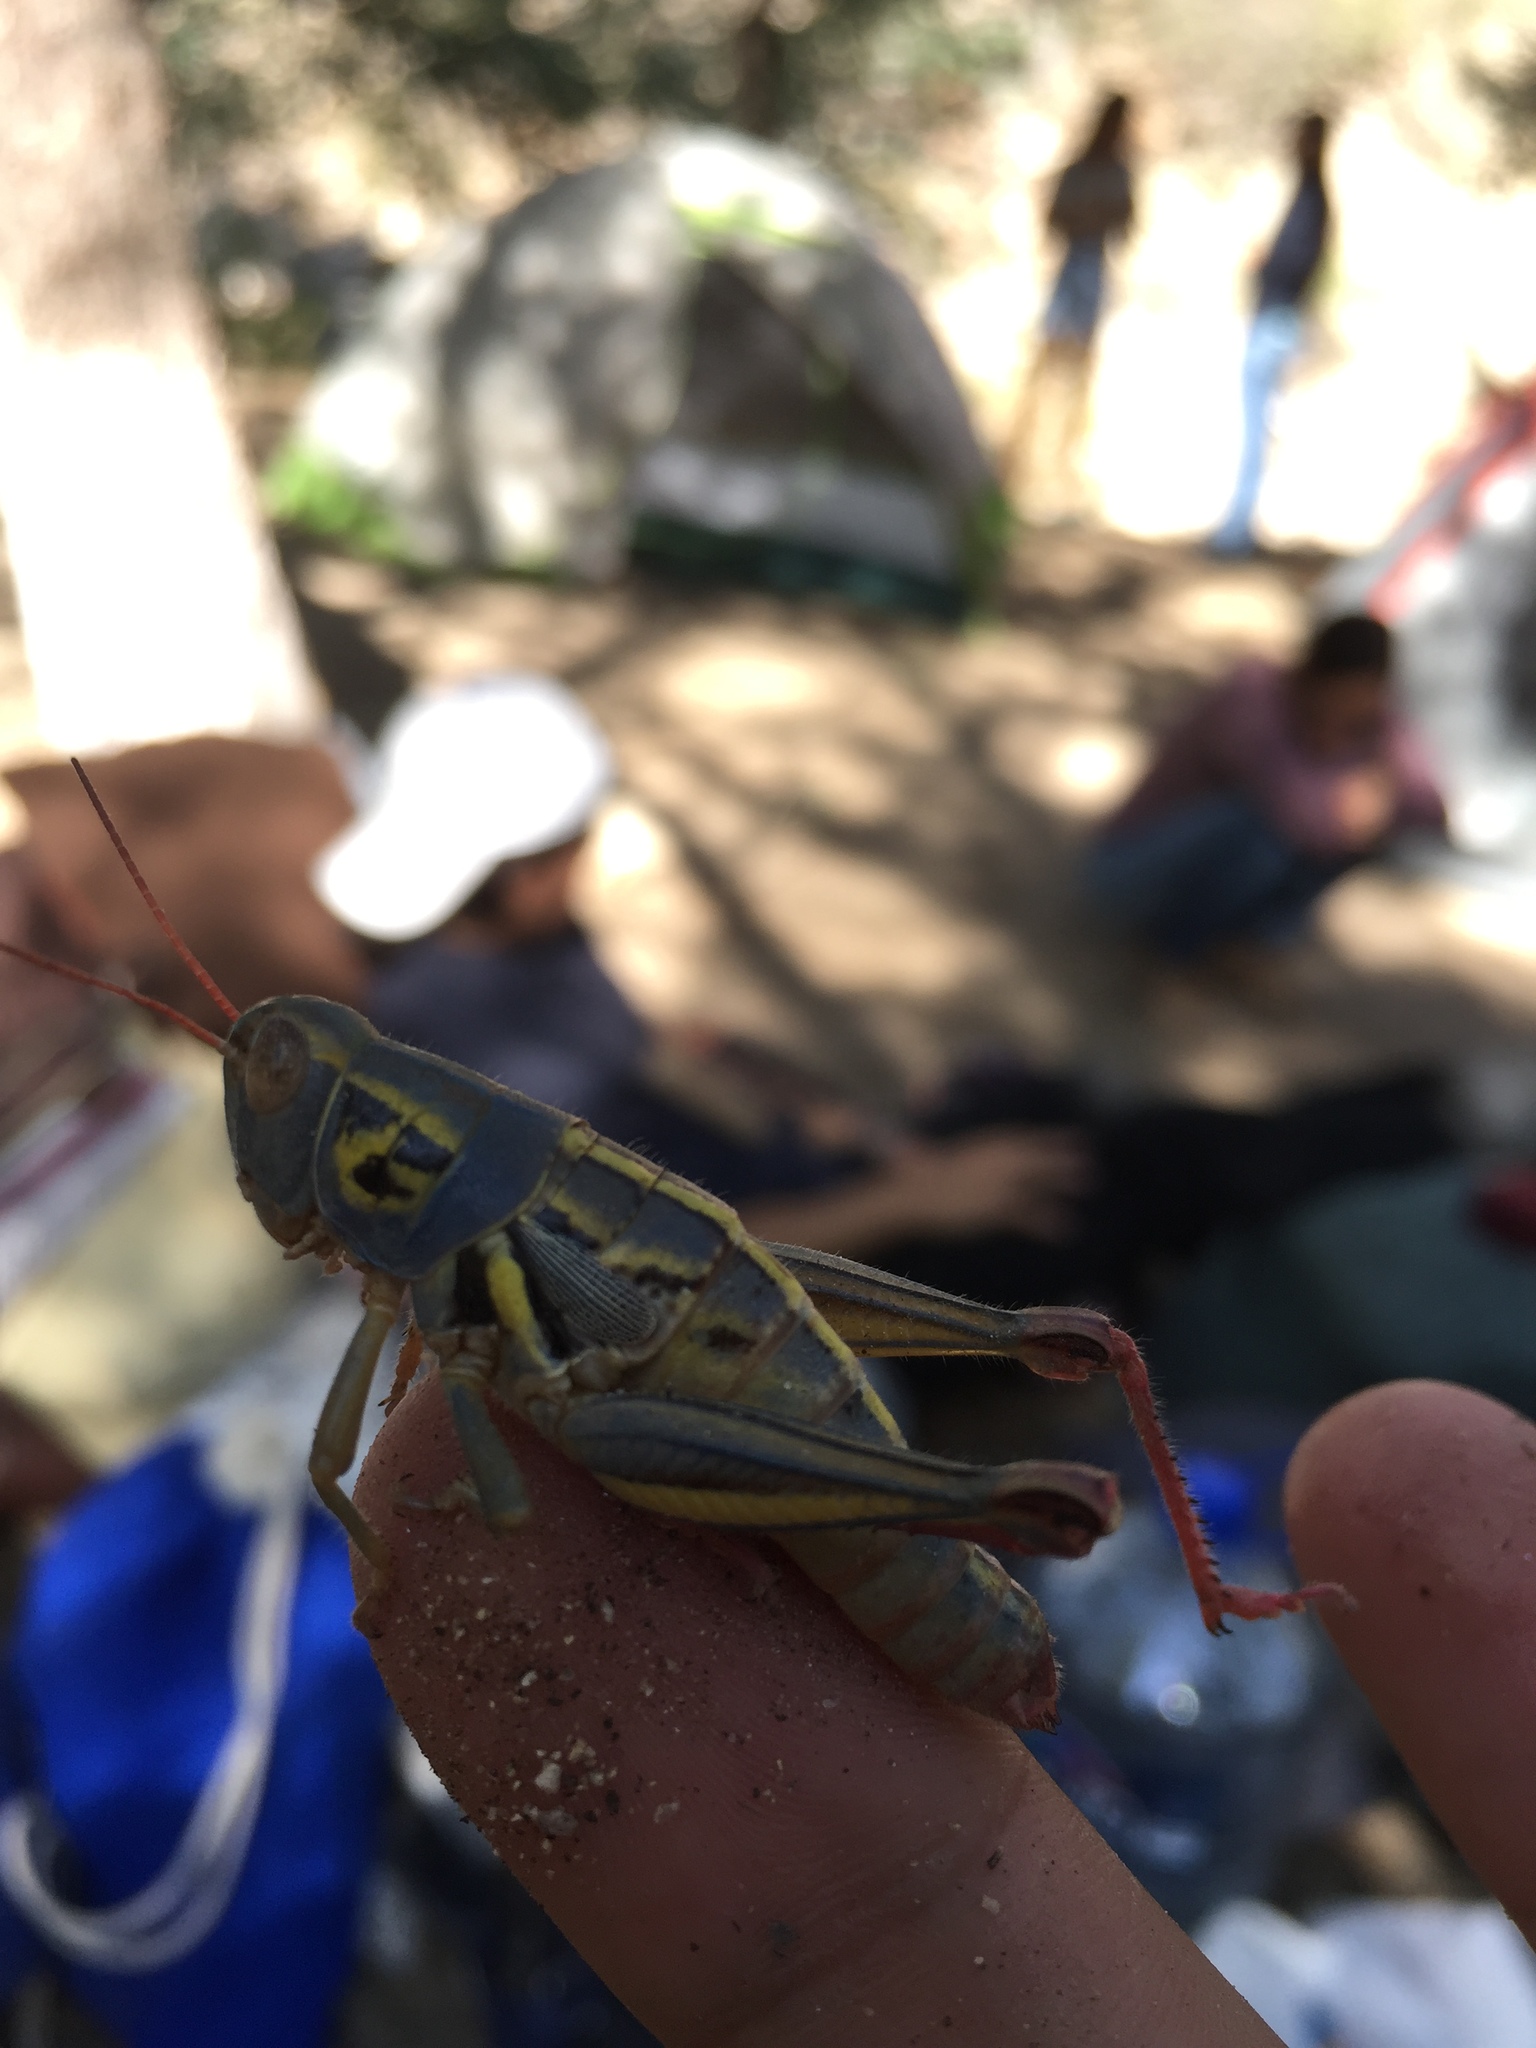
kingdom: Animalia
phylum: Arthropoda
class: Insecta
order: Orthoptera
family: Acrididae
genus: Barytettix
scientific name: Barytettix humphreysii
